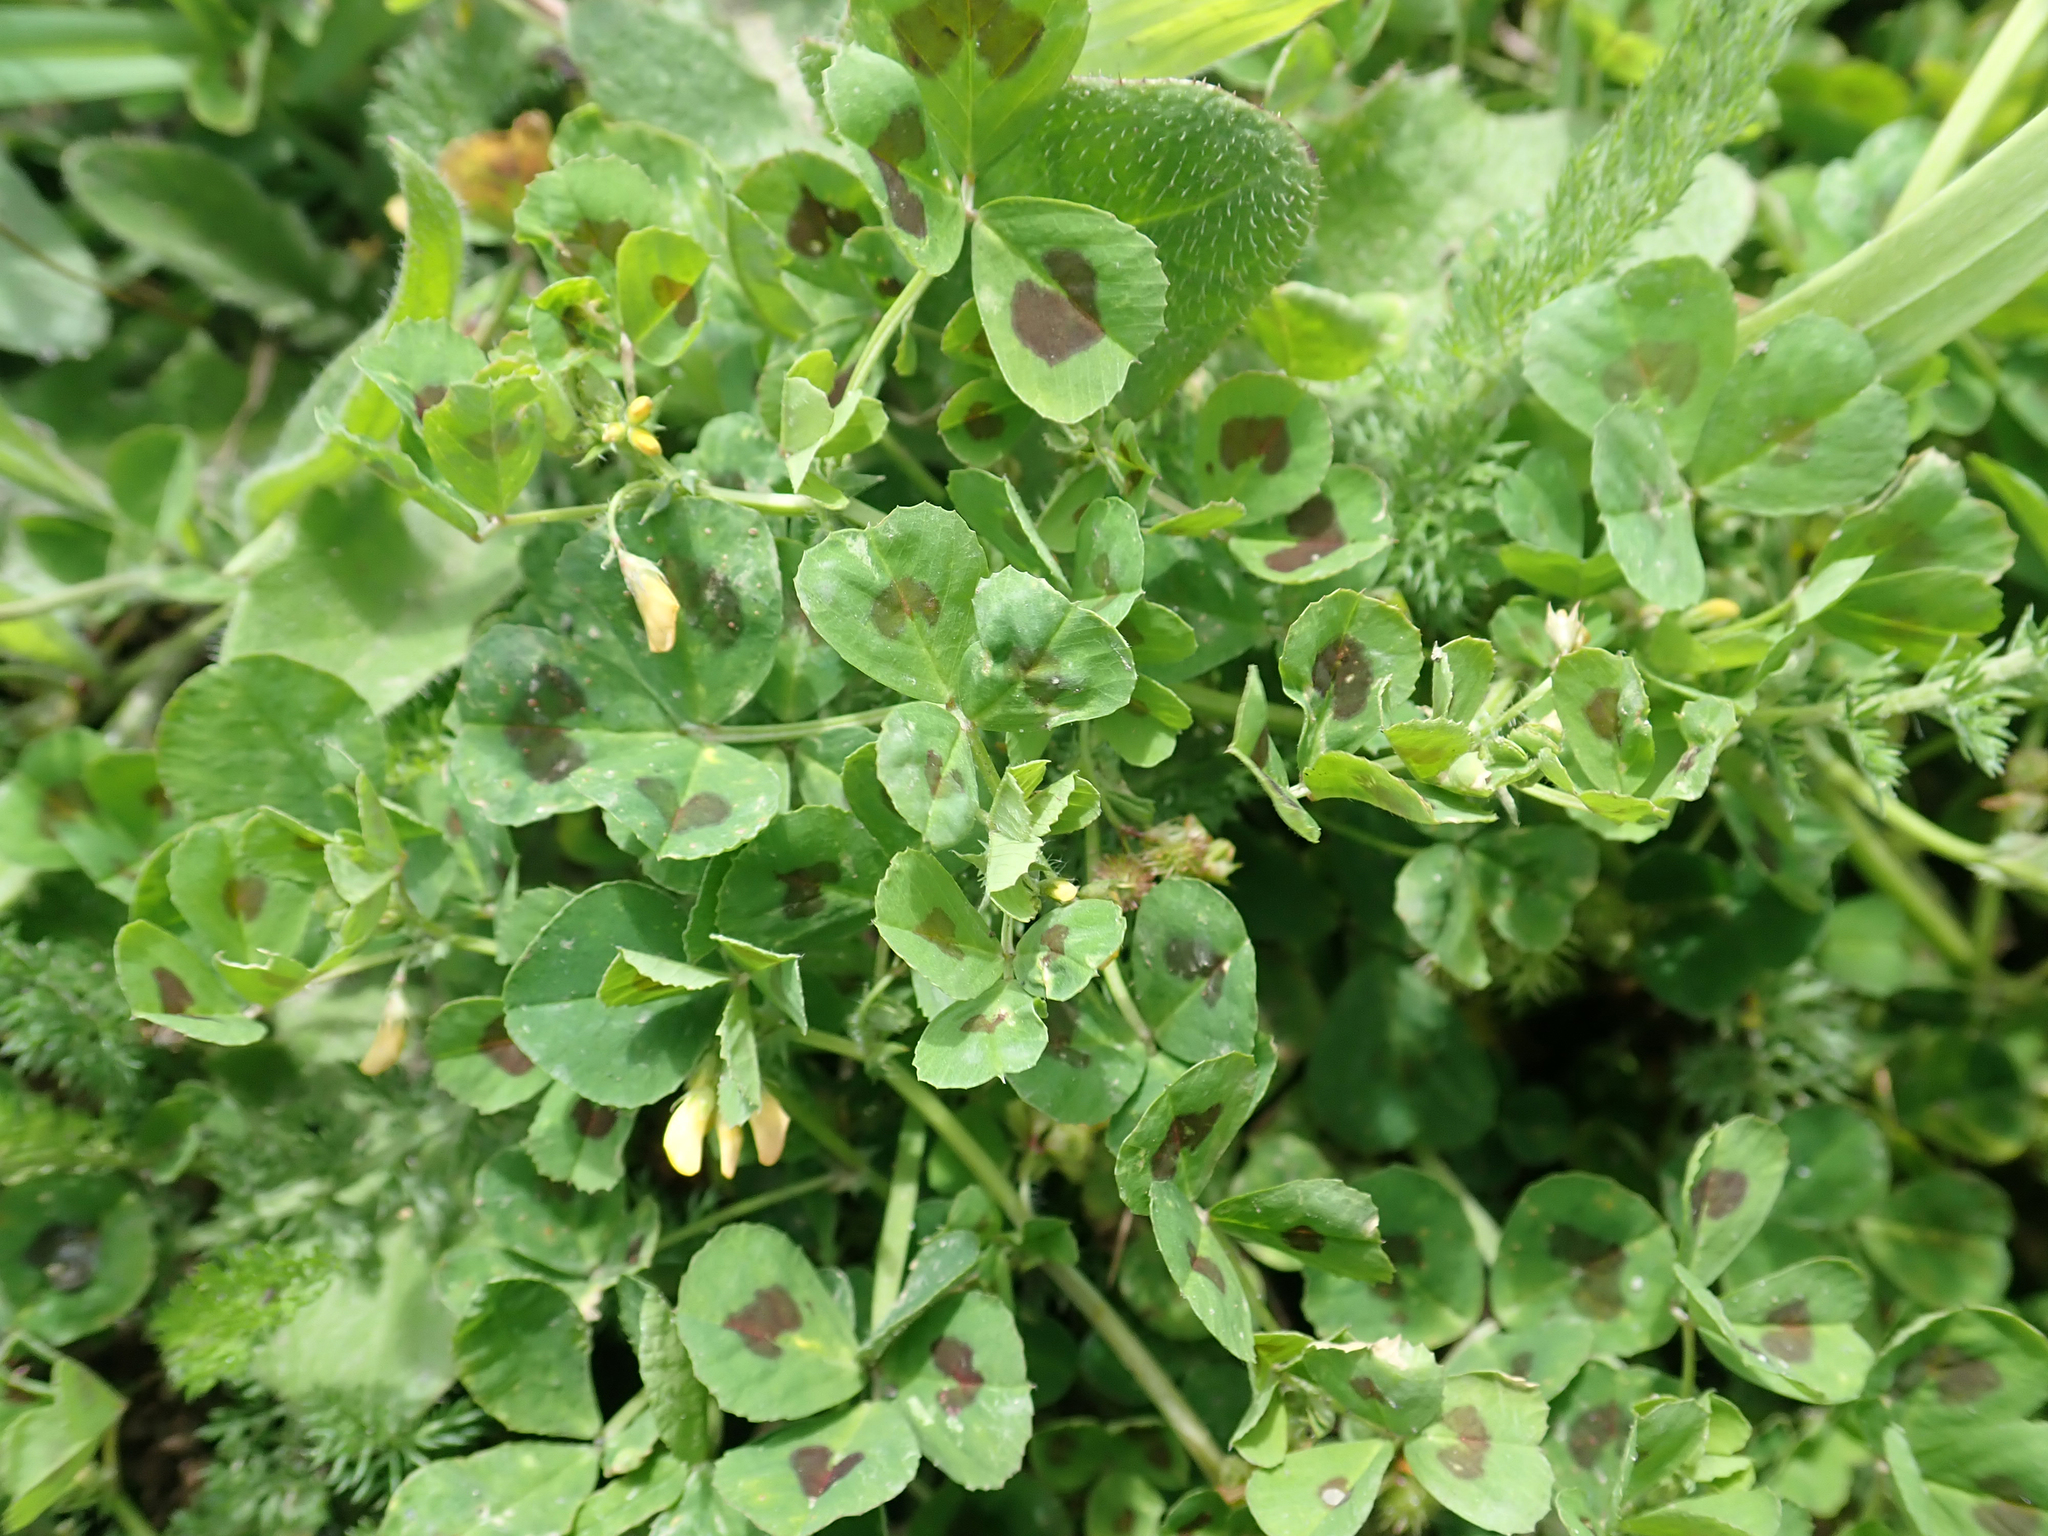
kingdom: Plantae
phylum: Tracheophyta
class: Magnoliopsida
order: Fabales
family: Fabaceae
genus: Medicago
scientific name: Medicago arabica
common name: Spotted medick
